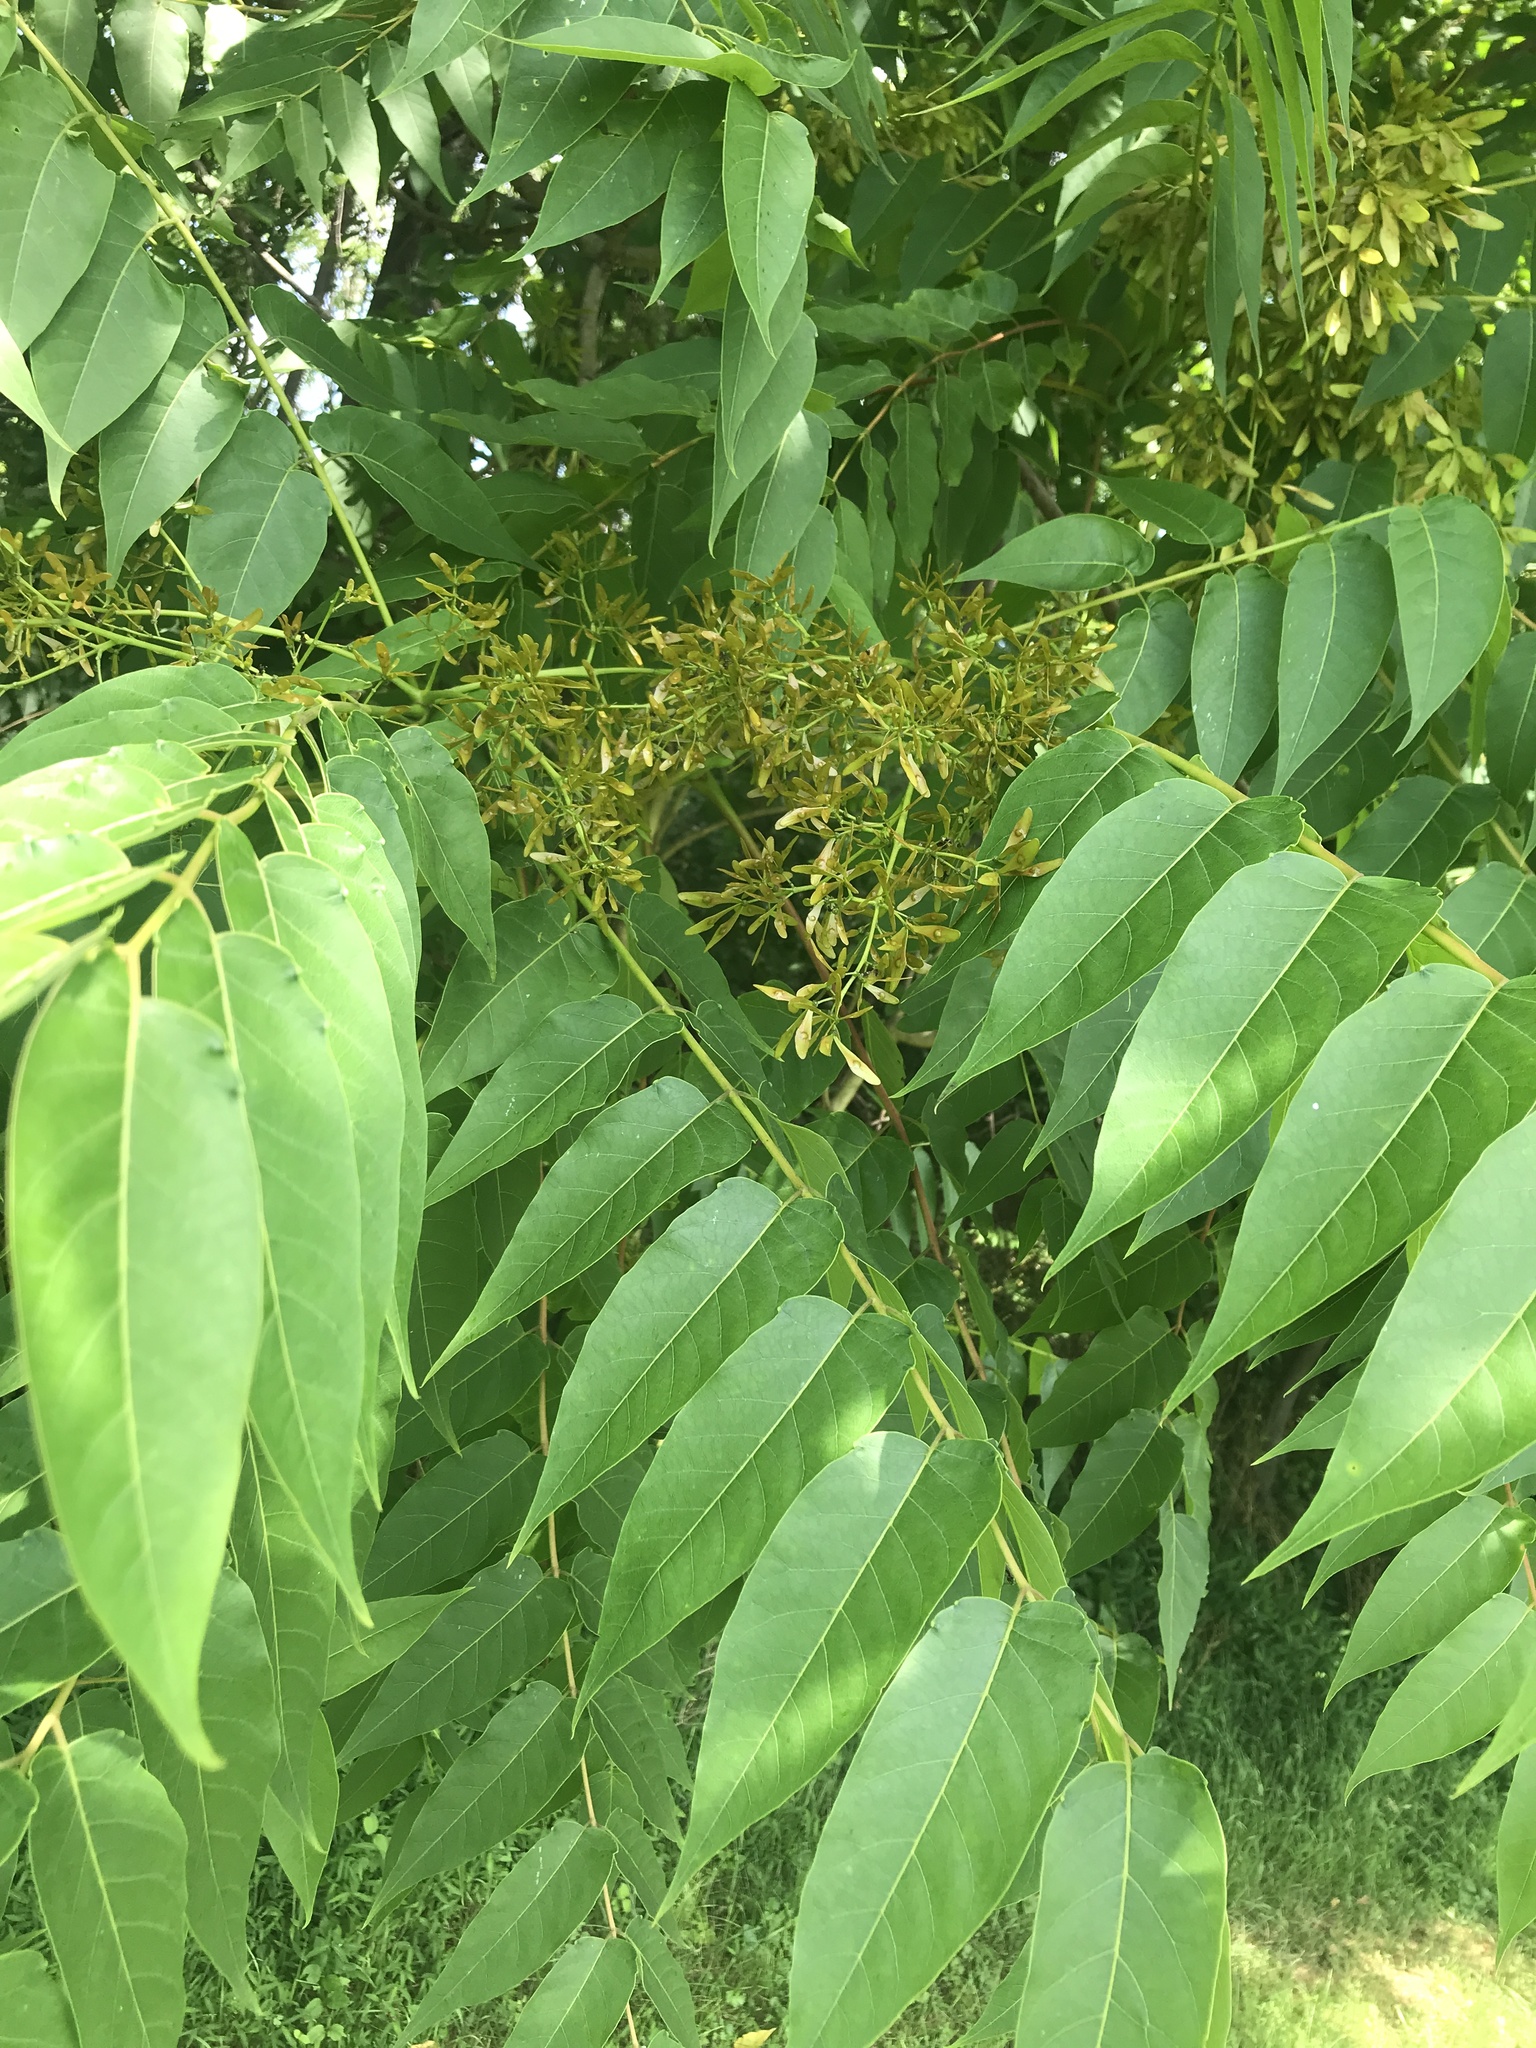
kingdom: Plantae
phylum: Tracheophyta
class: Magnoliopsida
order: Sapindales
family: Simaroubaceae
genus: Ailanthus
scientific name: Ailanthus altissima
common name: Tree-of-heaven
